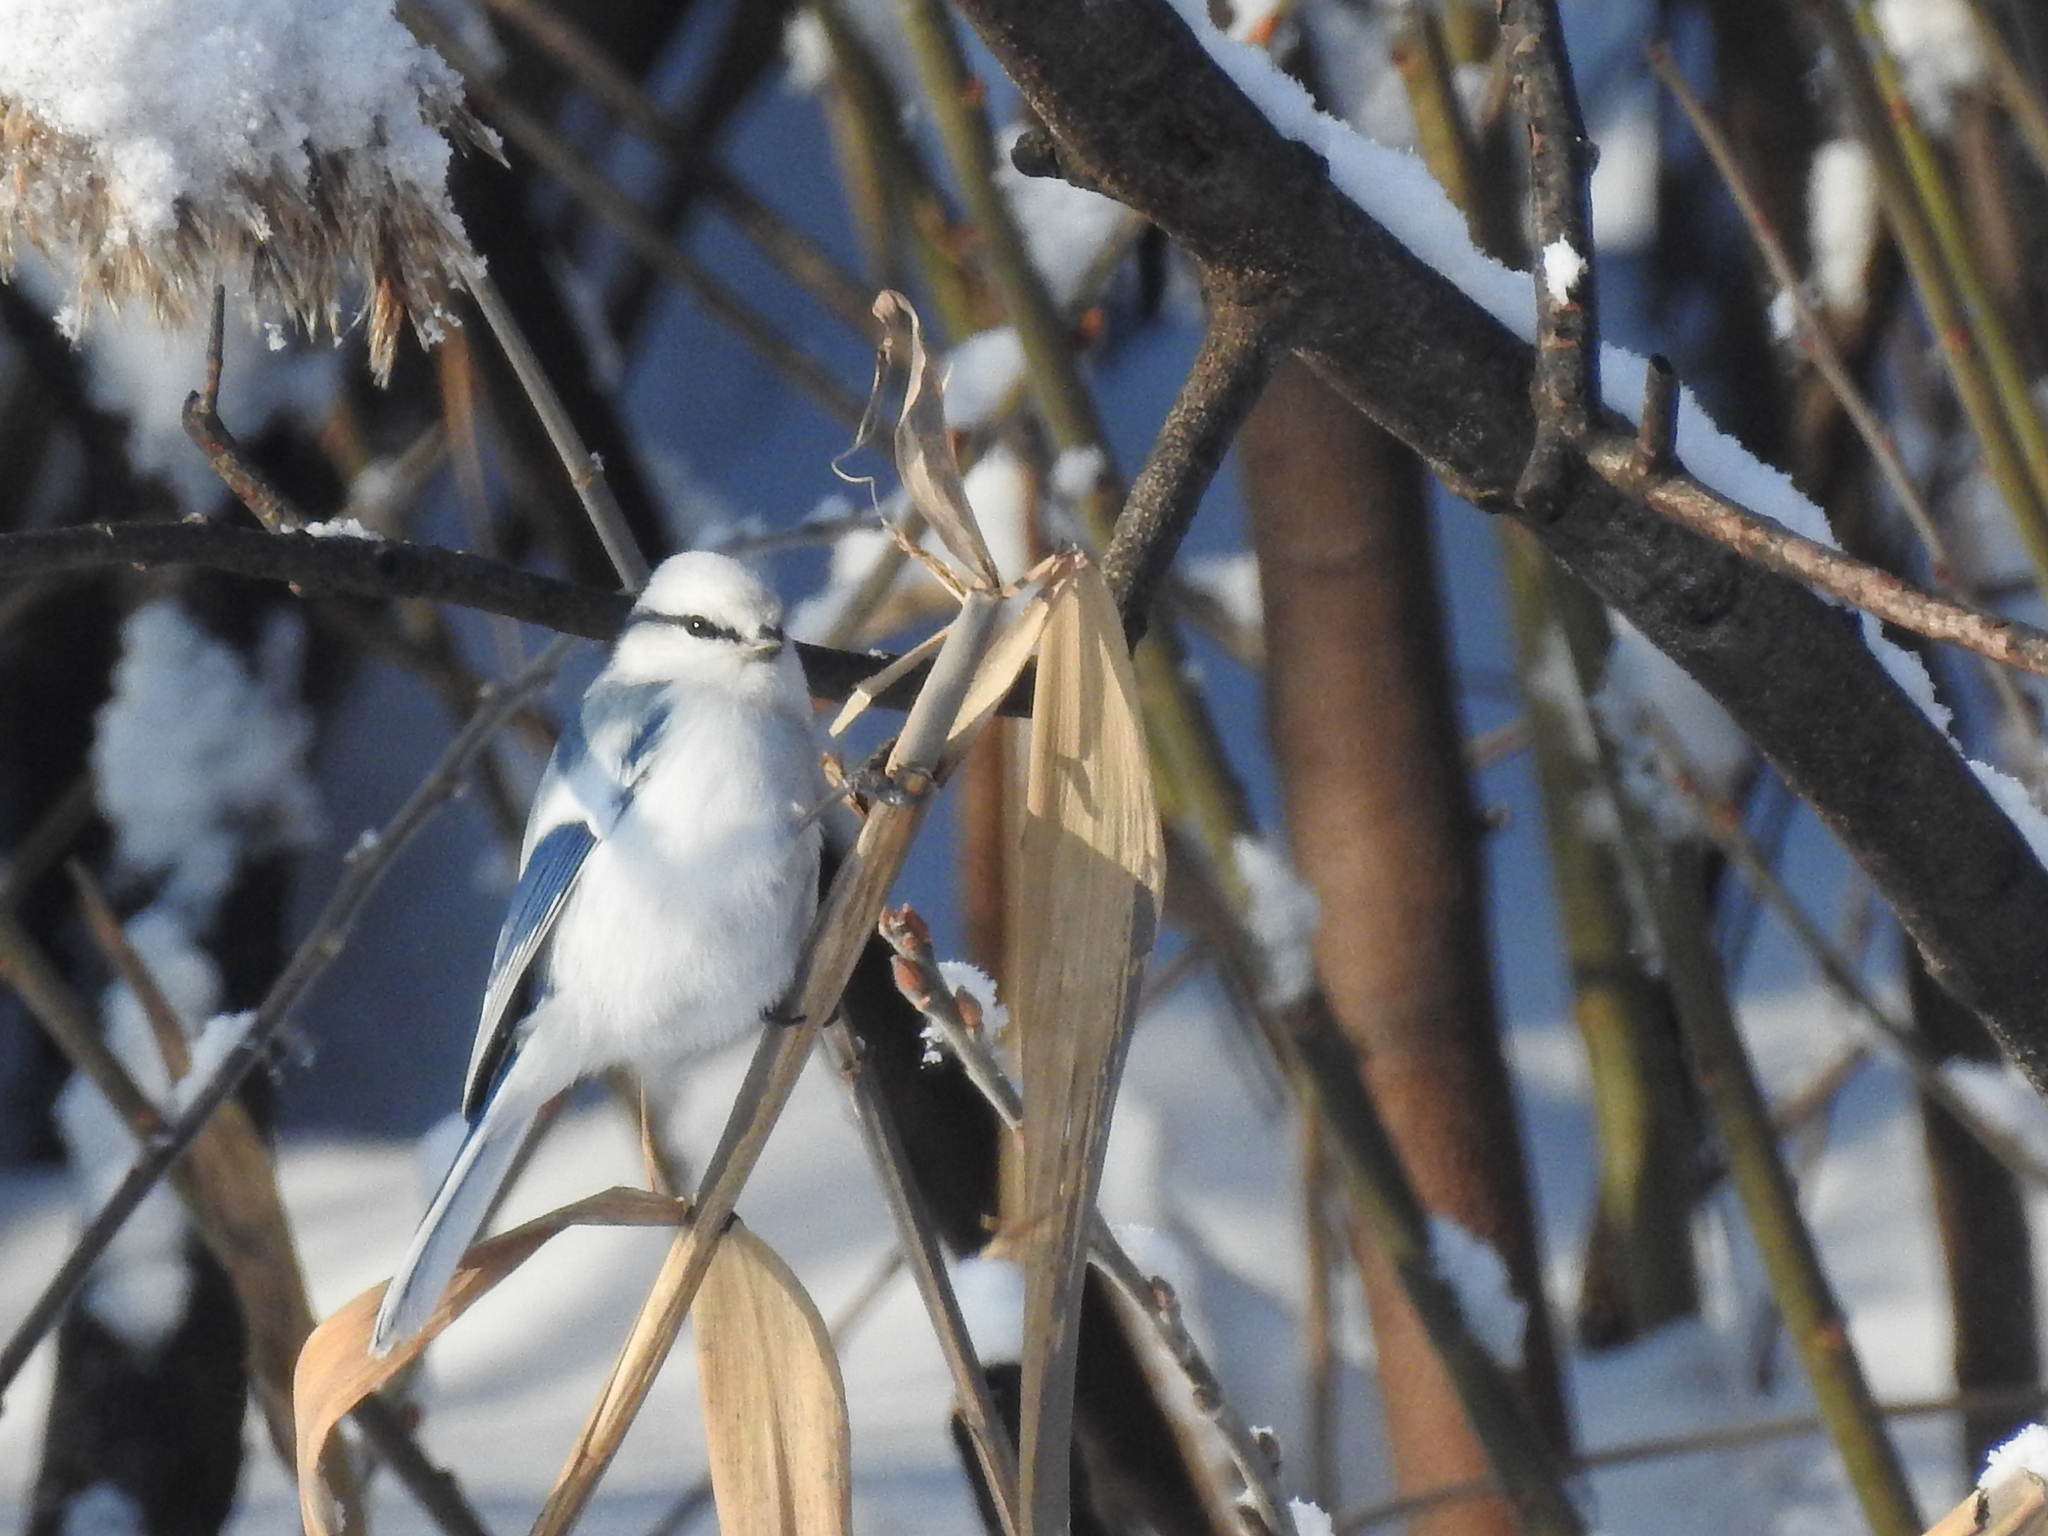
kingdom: Animalia
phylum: Chordata
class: Aves
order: Passeriformes
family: Paridae
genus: Cyanistes
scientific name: Cyanistes cyanus
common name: Azure tit
